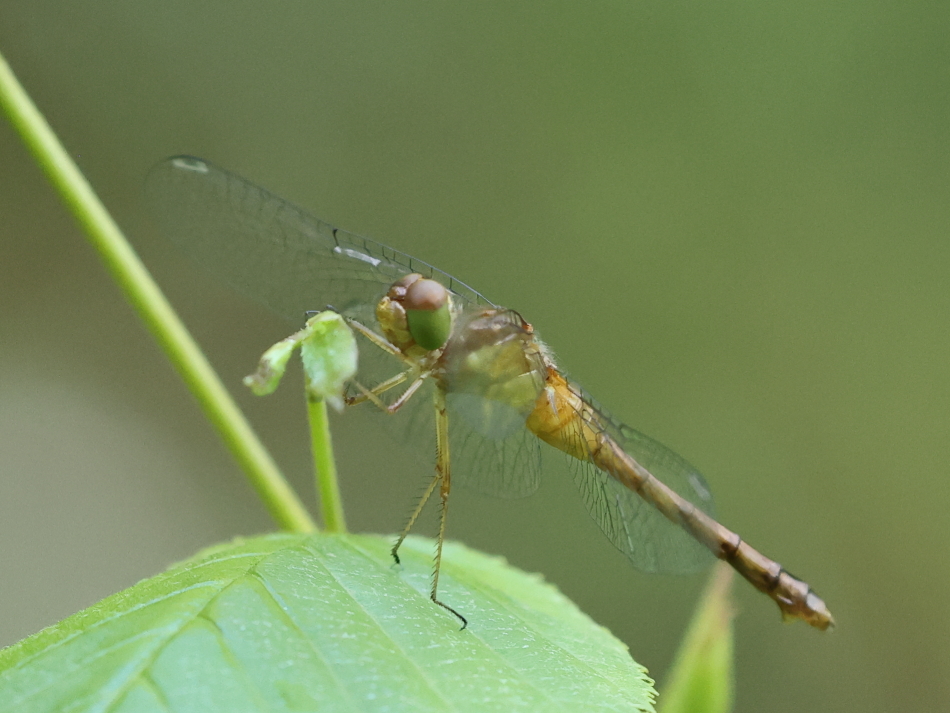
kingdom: Animalia
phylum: Arthropoda
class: Insecta
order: Odonata
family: Libellulidae
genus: Sympetrum
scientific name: Sympetrum vicinum
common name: Autumn meadowhawk
